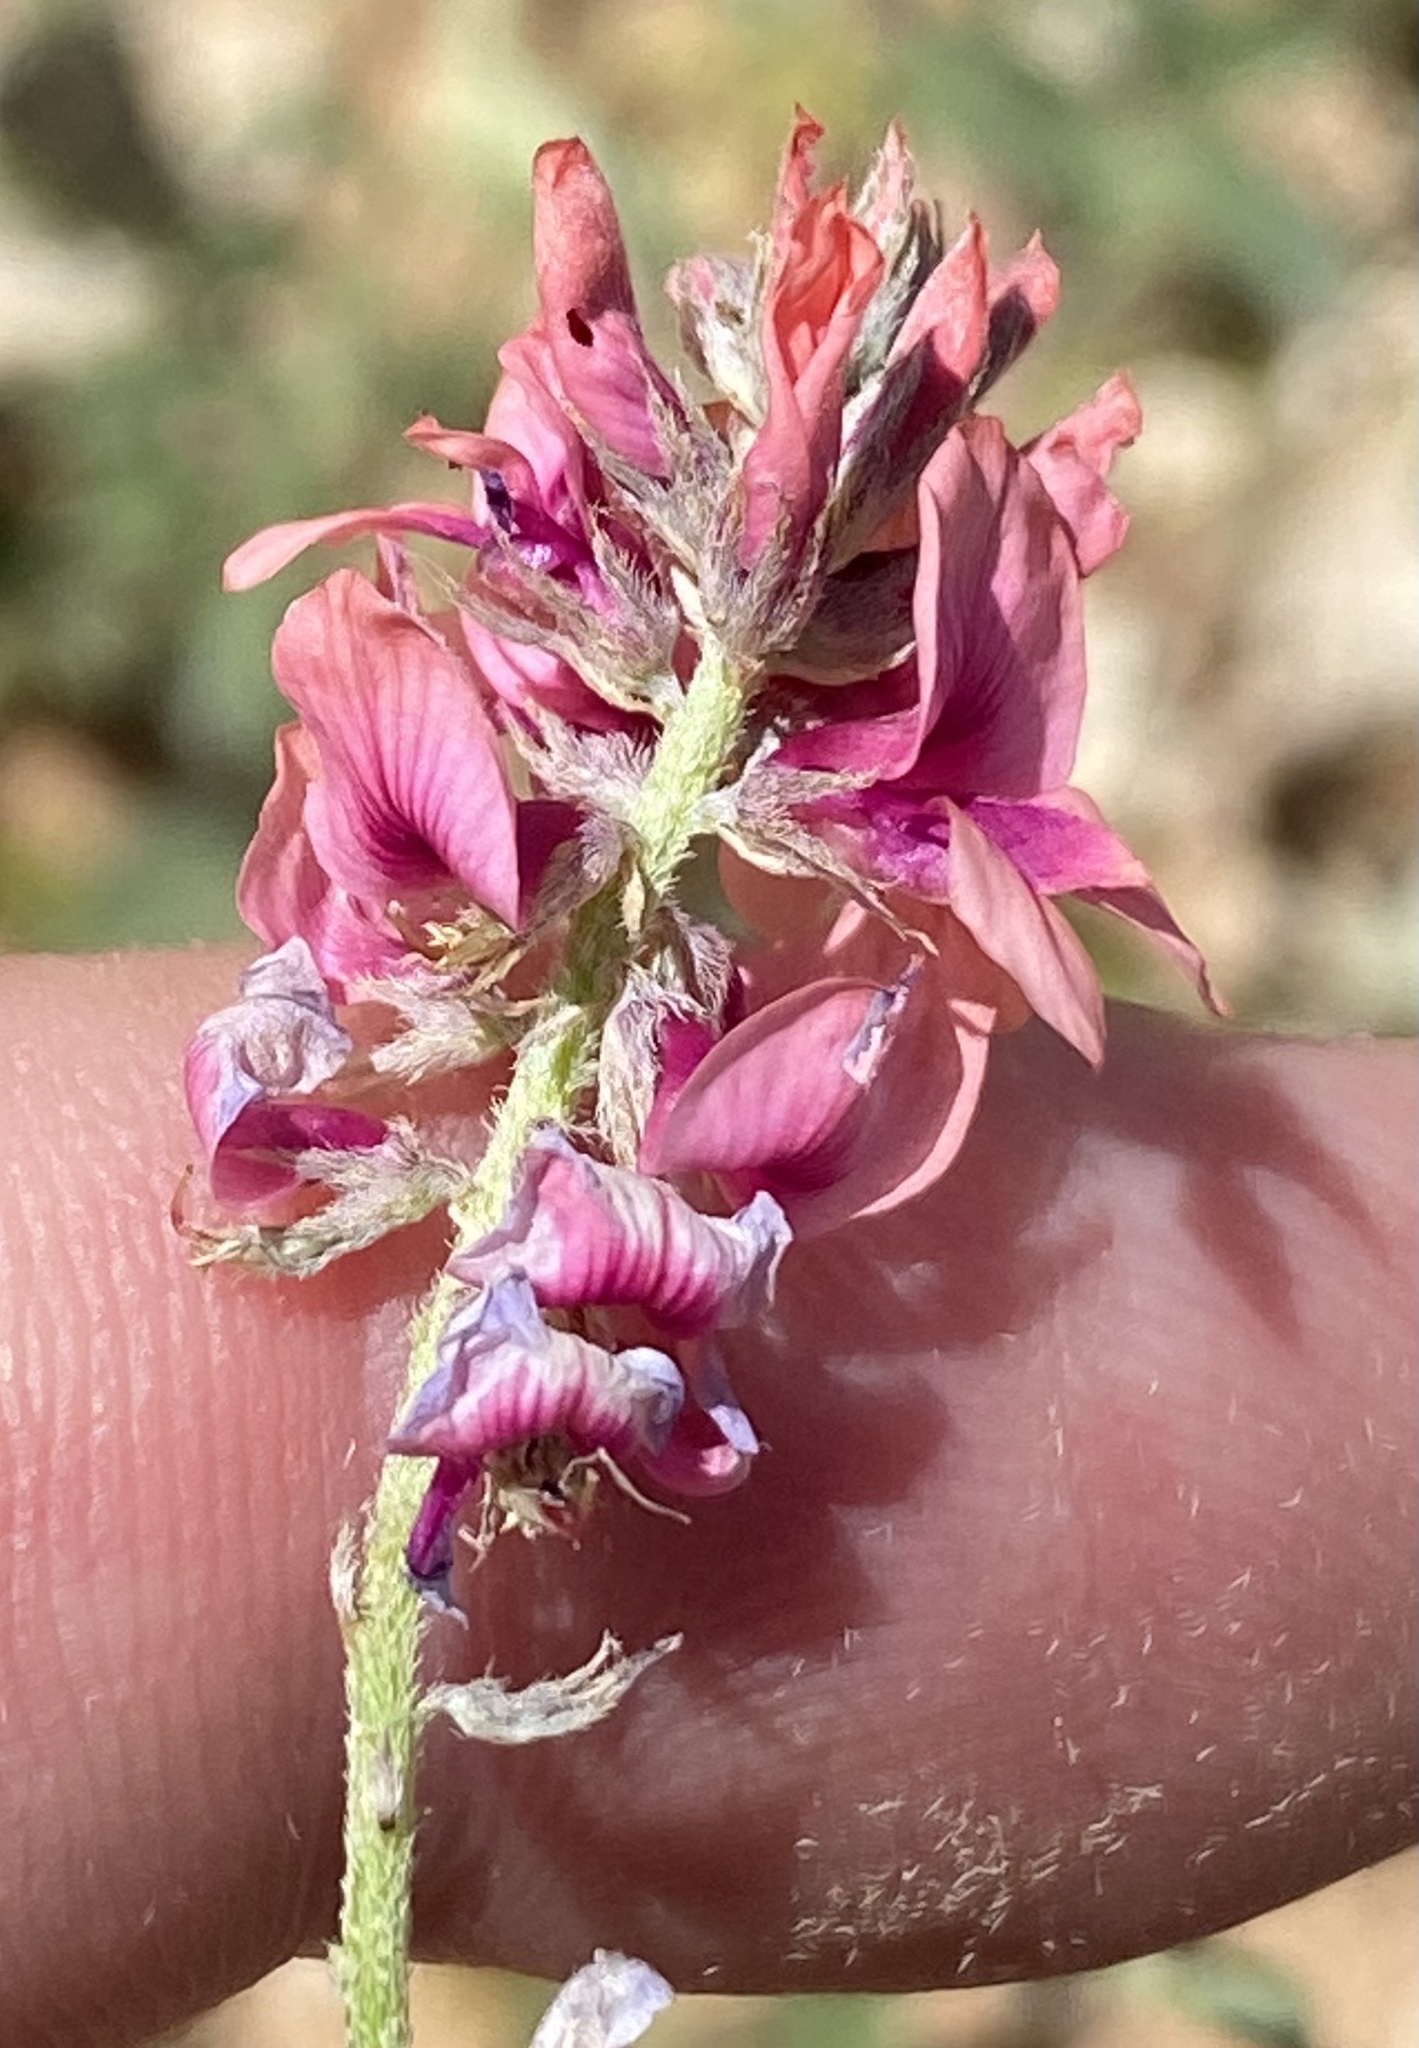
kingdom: Plantae
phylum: Tracheophyta
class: Magnoliopsida
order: Fabales
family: Fabaceae
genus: Indigofera
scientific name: Indigofera auricoma
